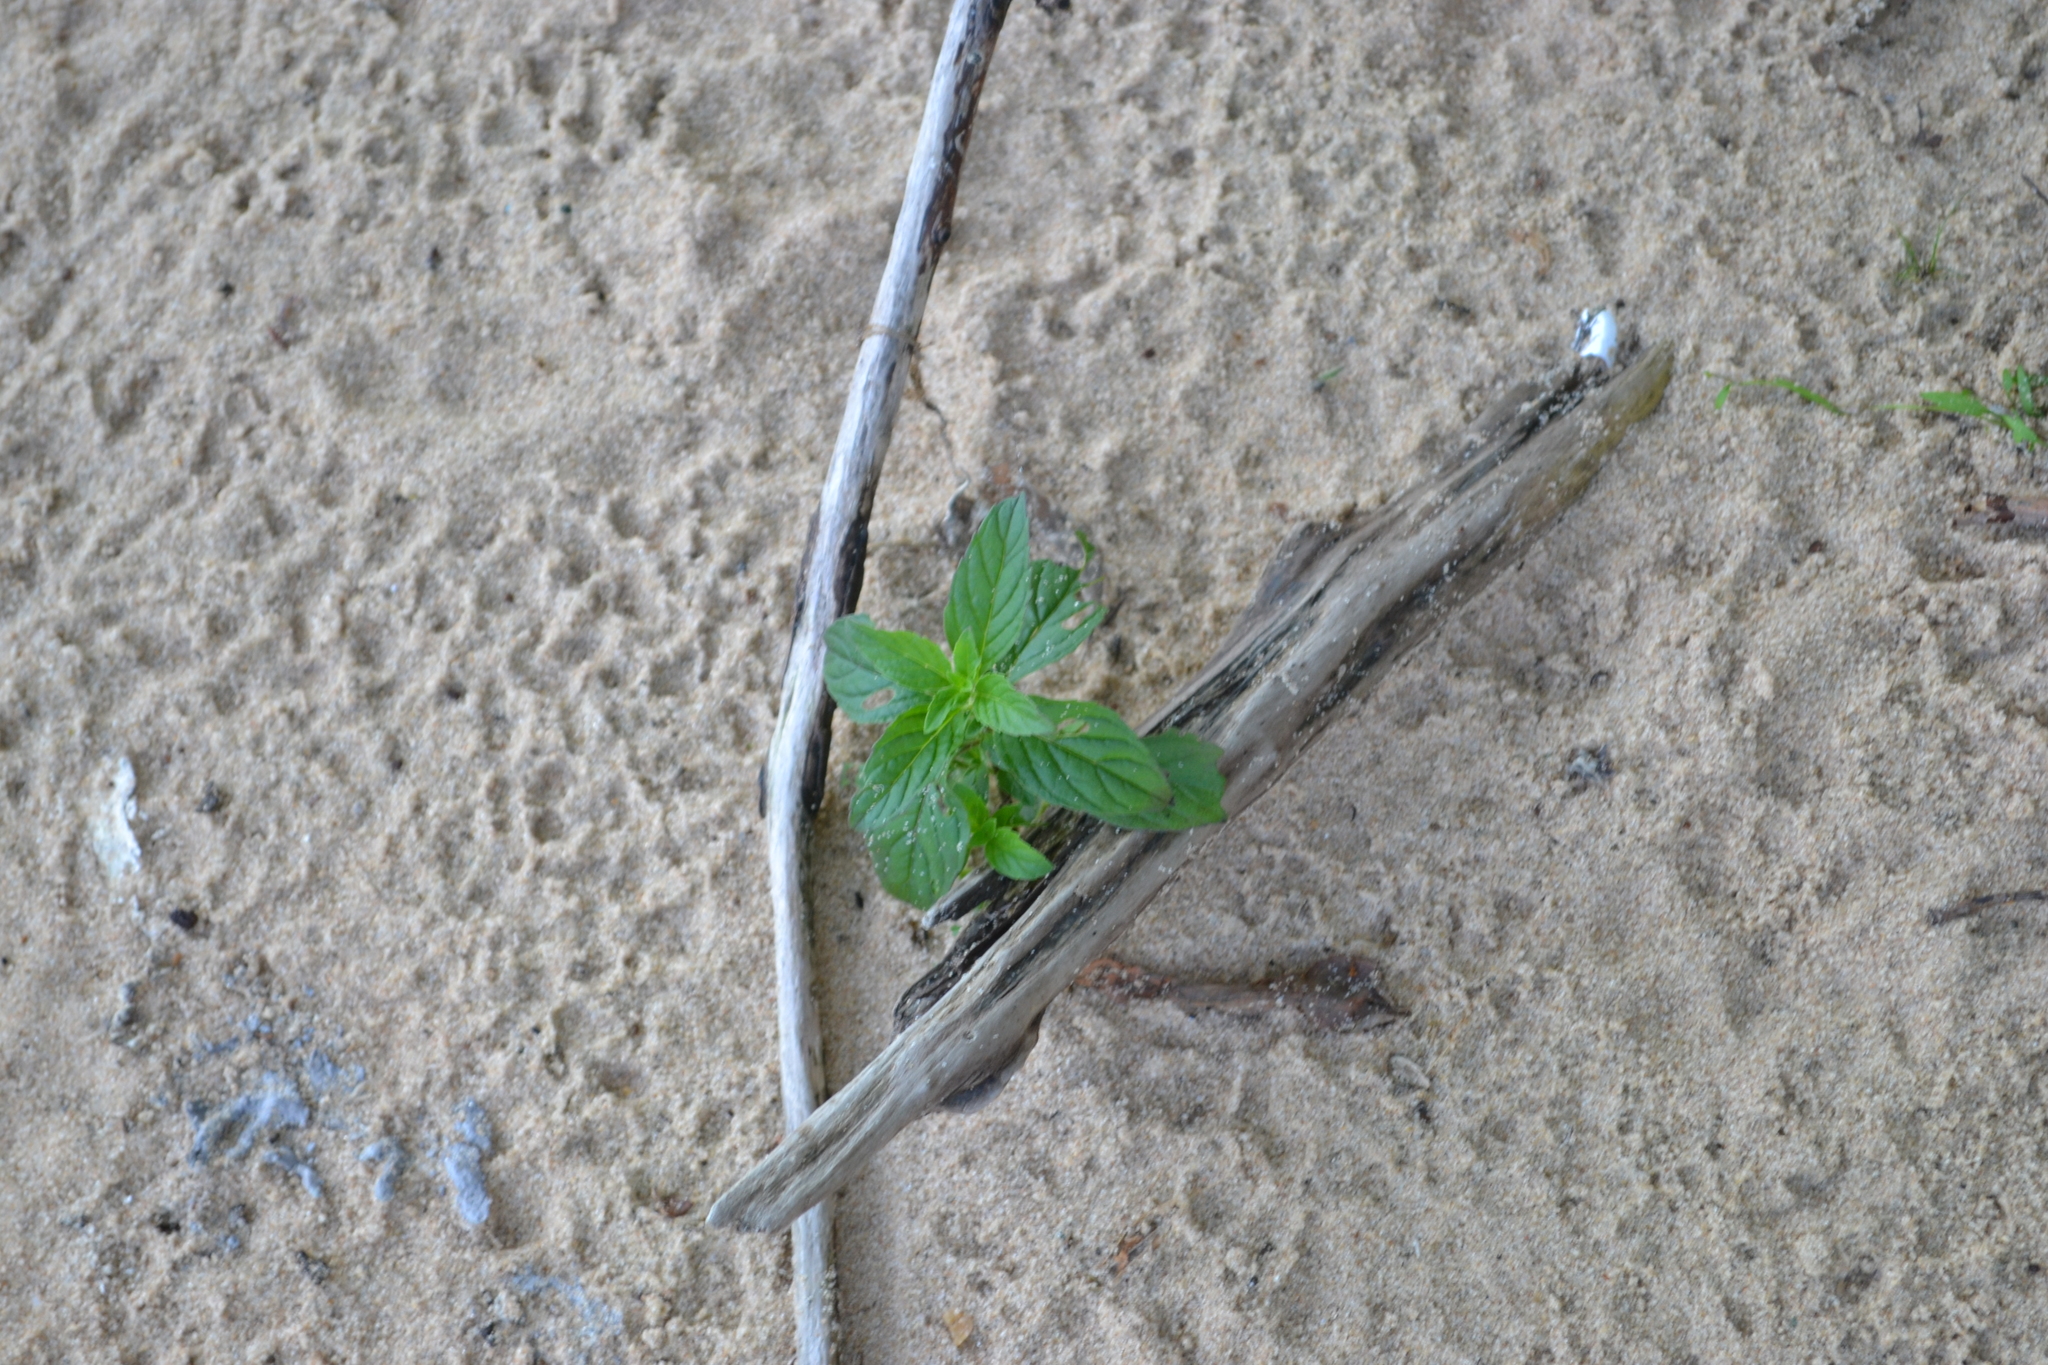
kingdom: Plantae
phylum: Tracheophyta
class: Magnoliopsida
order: Lamiales
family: Lamiaceae
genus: Mentha
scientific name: Mentha arvensis
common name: Corn mint
